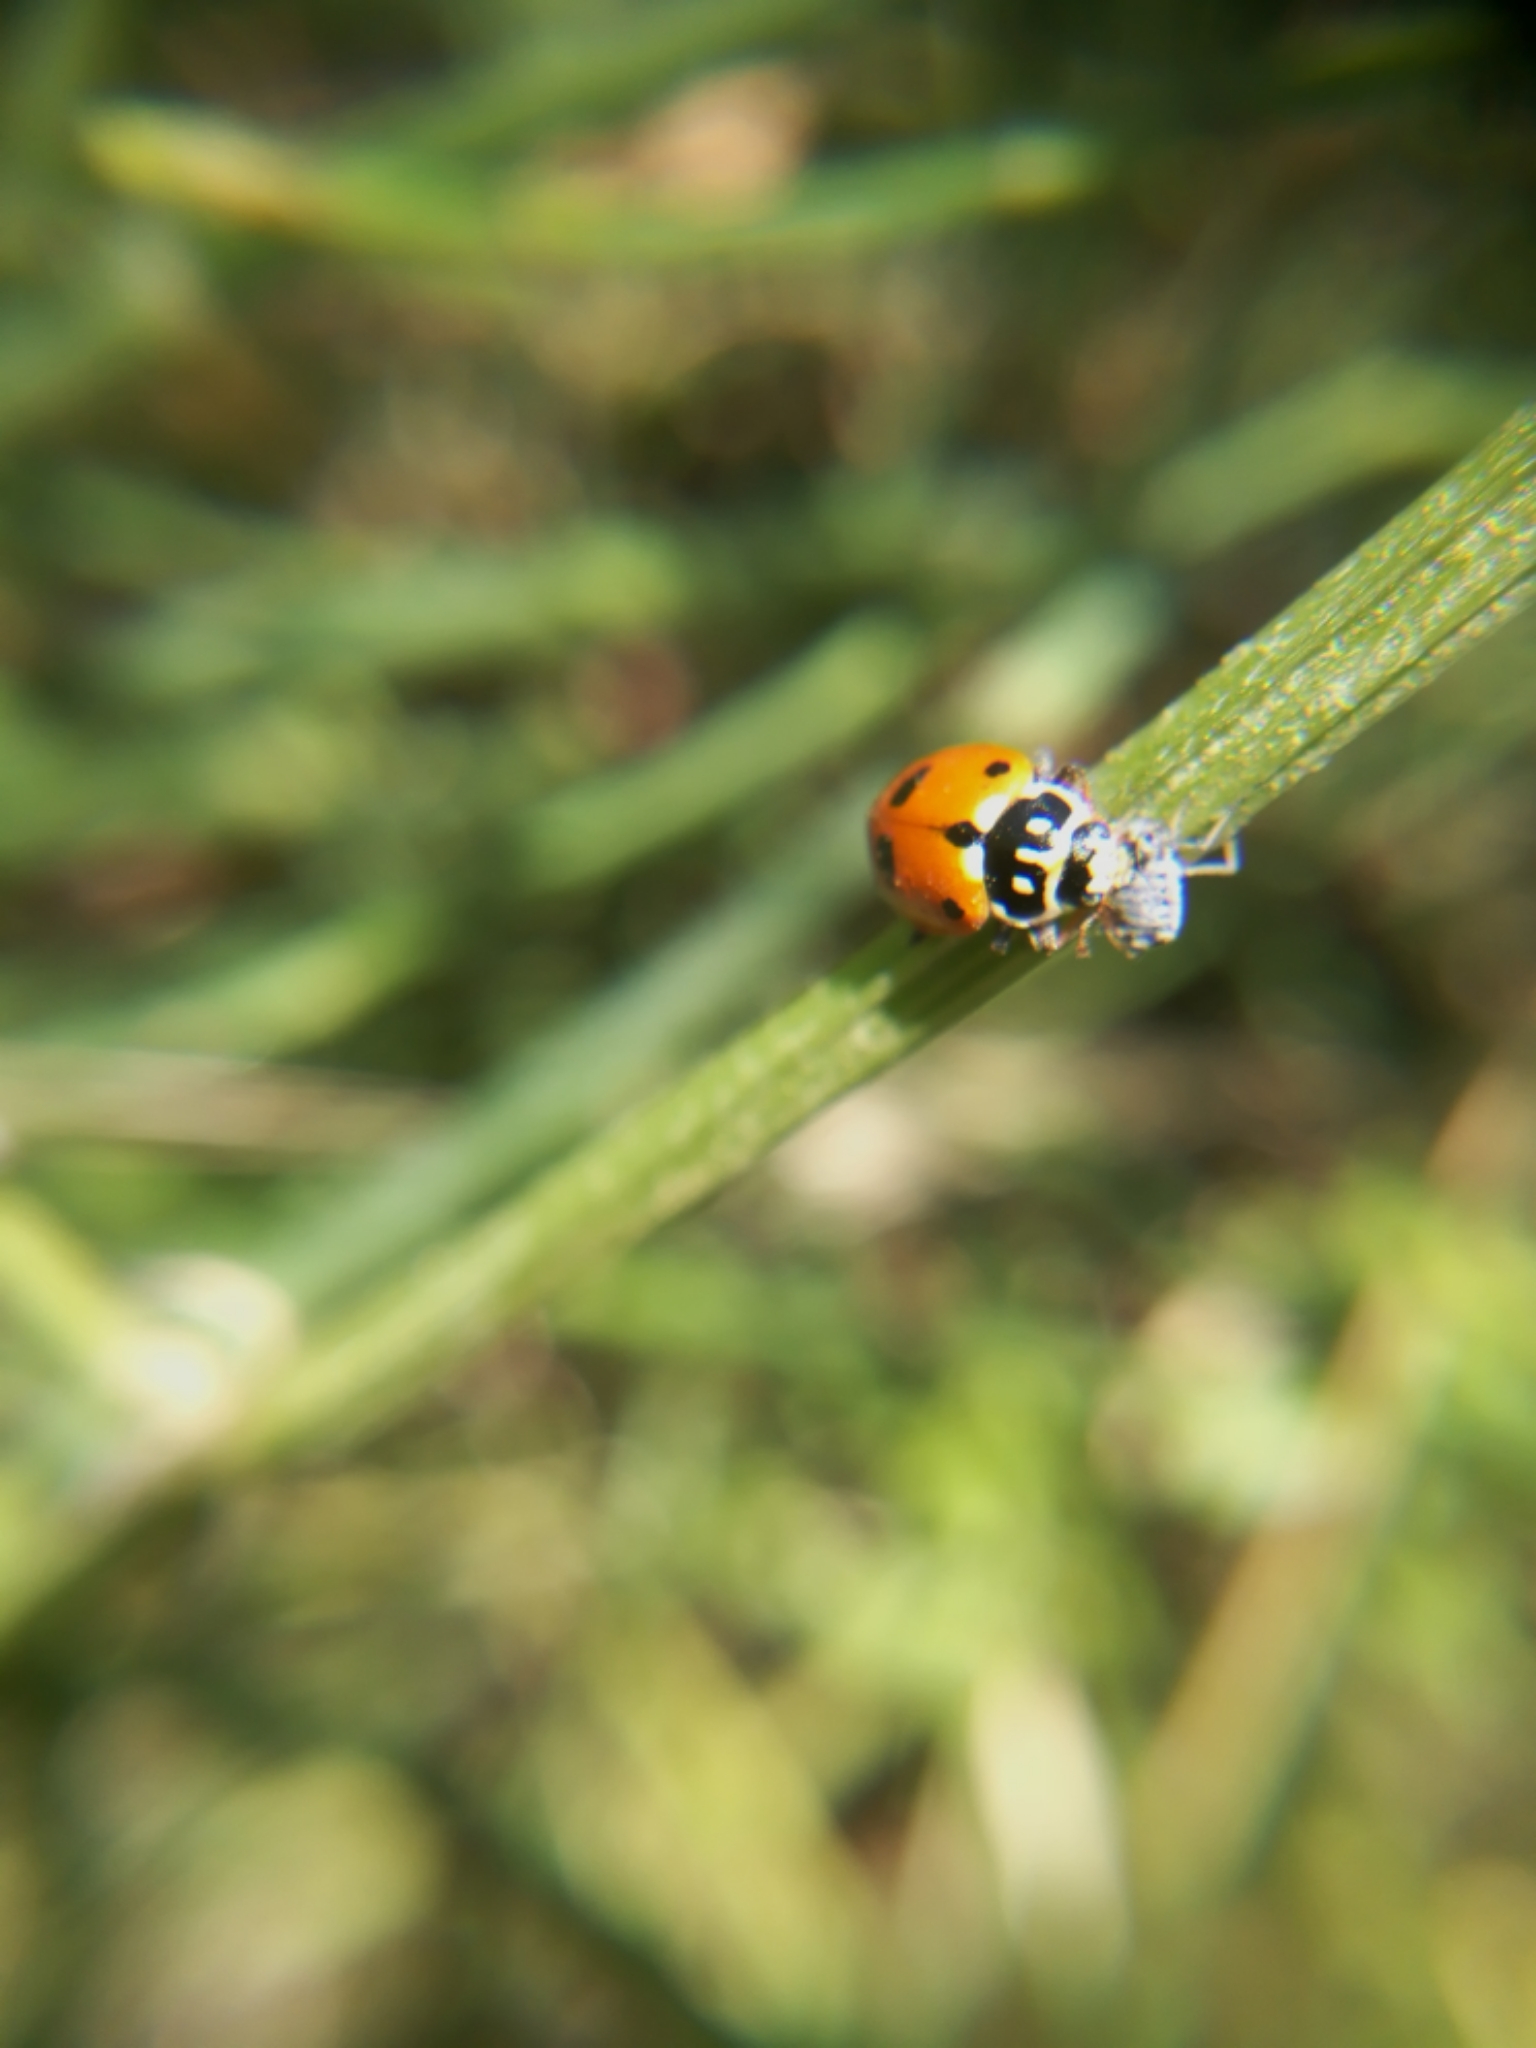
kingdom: Animalia
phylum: Arthropoda
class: Insecta
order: Coleoptera
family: Coccinellidae
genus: Hippodamia
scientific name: Hippodamia variegata
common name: Ladybird beetle
